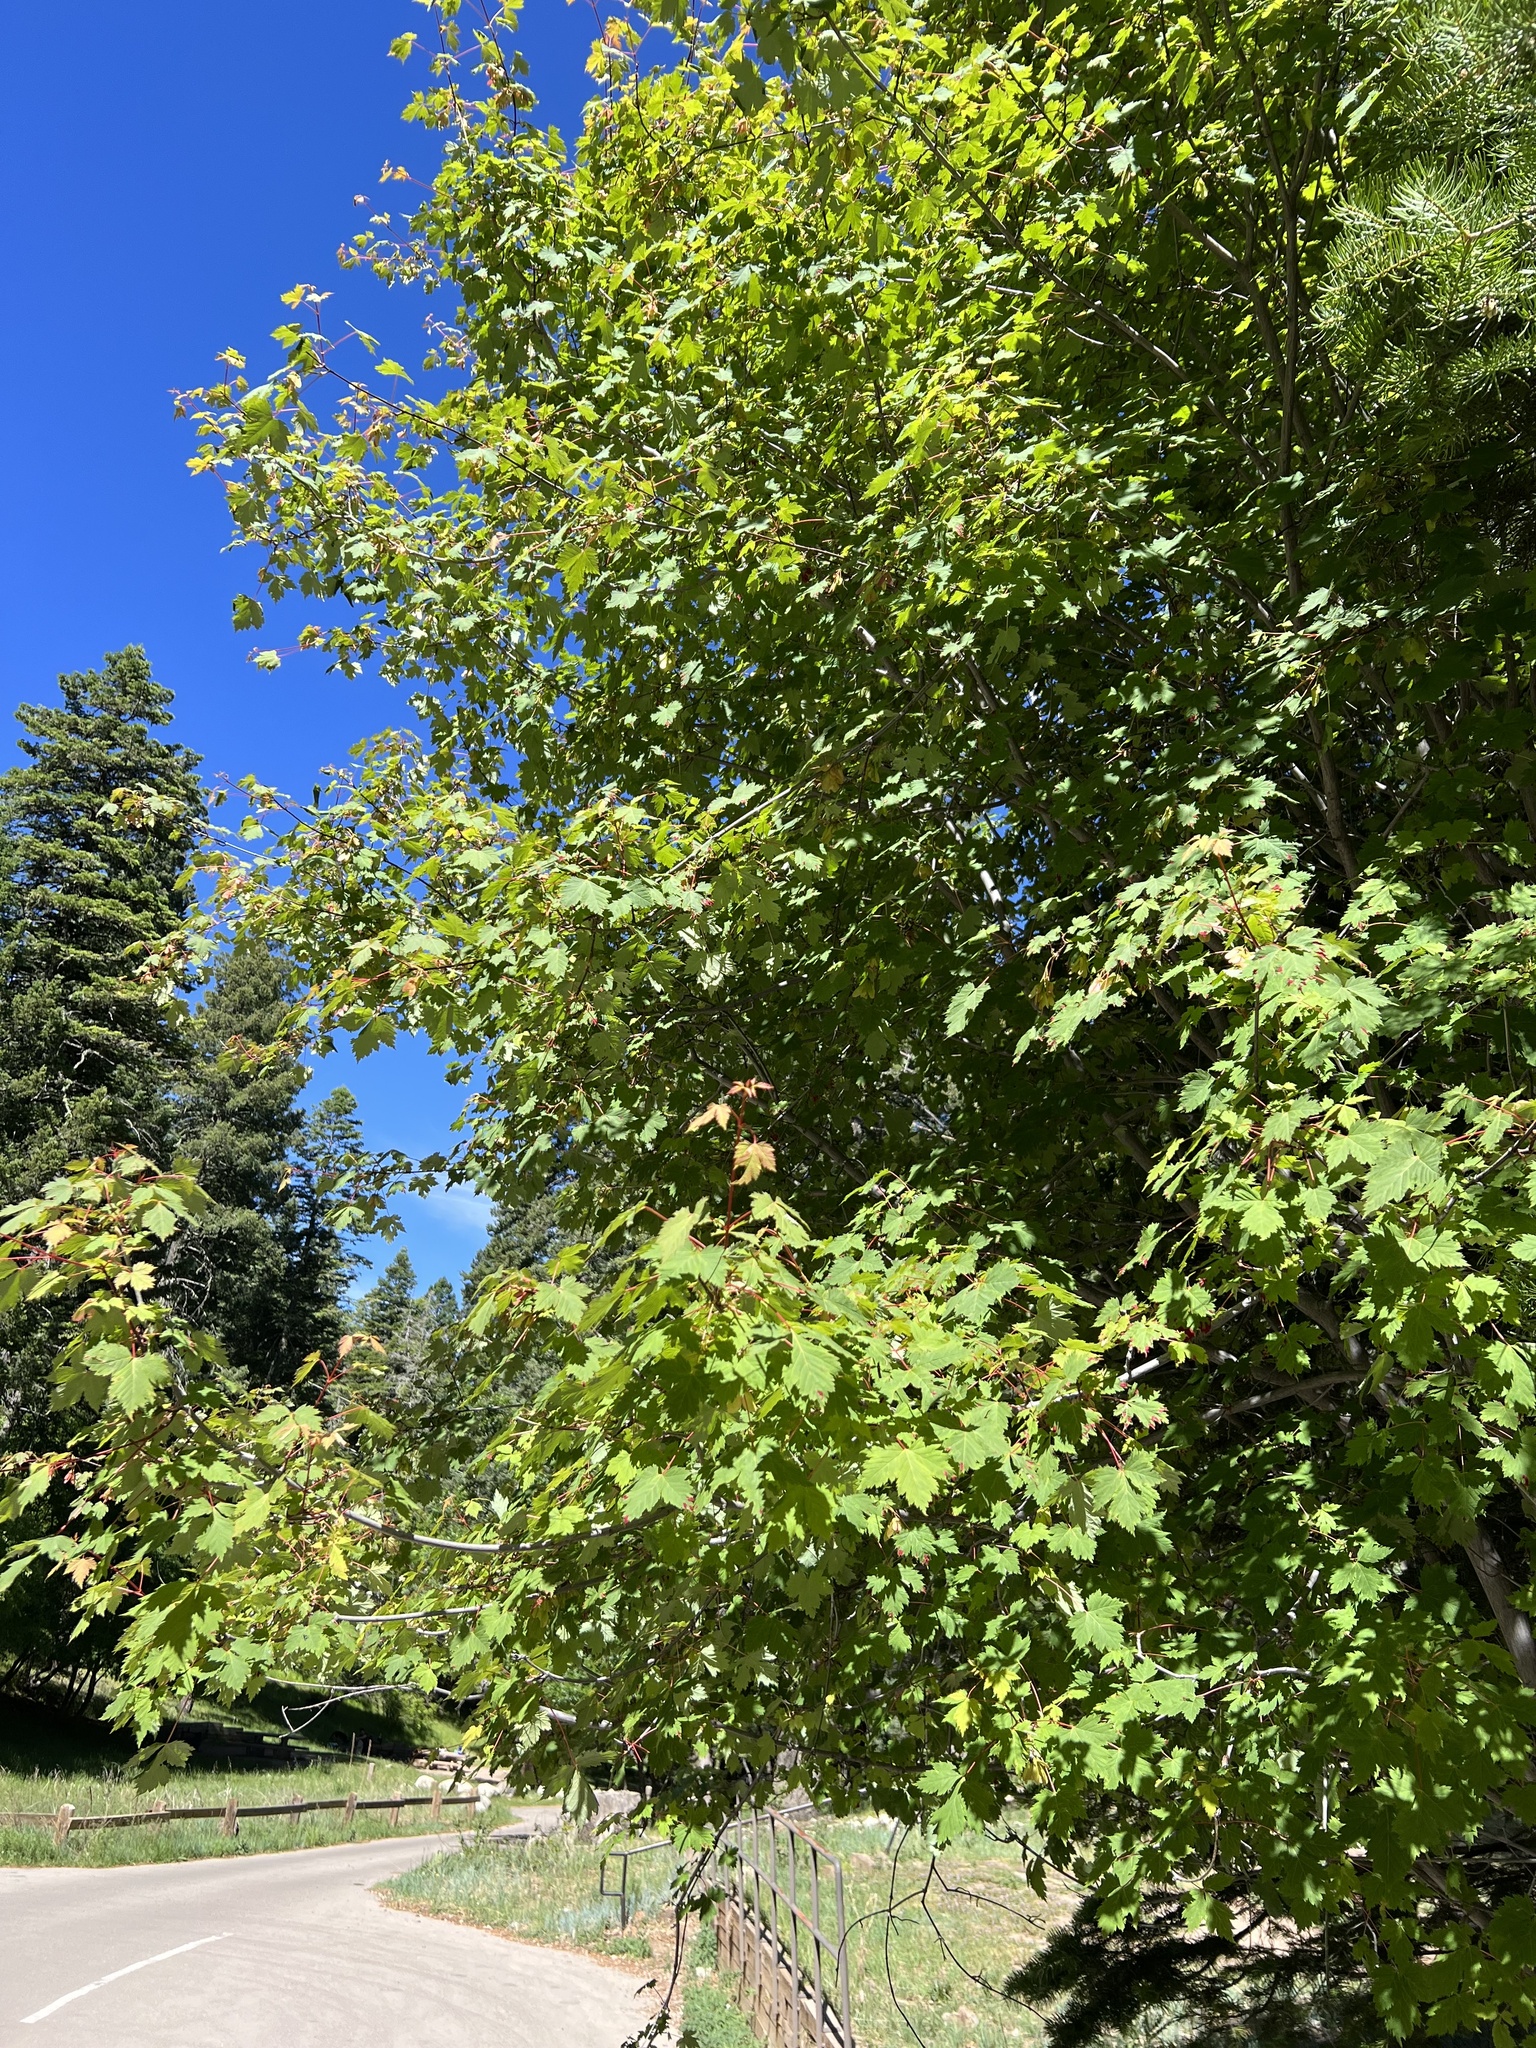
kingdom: Plantae
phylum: Tracheophyta
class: Magnoliopsida
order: Sapindales
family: Sapindaceae
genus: Acer
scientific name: Acer glabrum
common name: Rocky mountain maple
